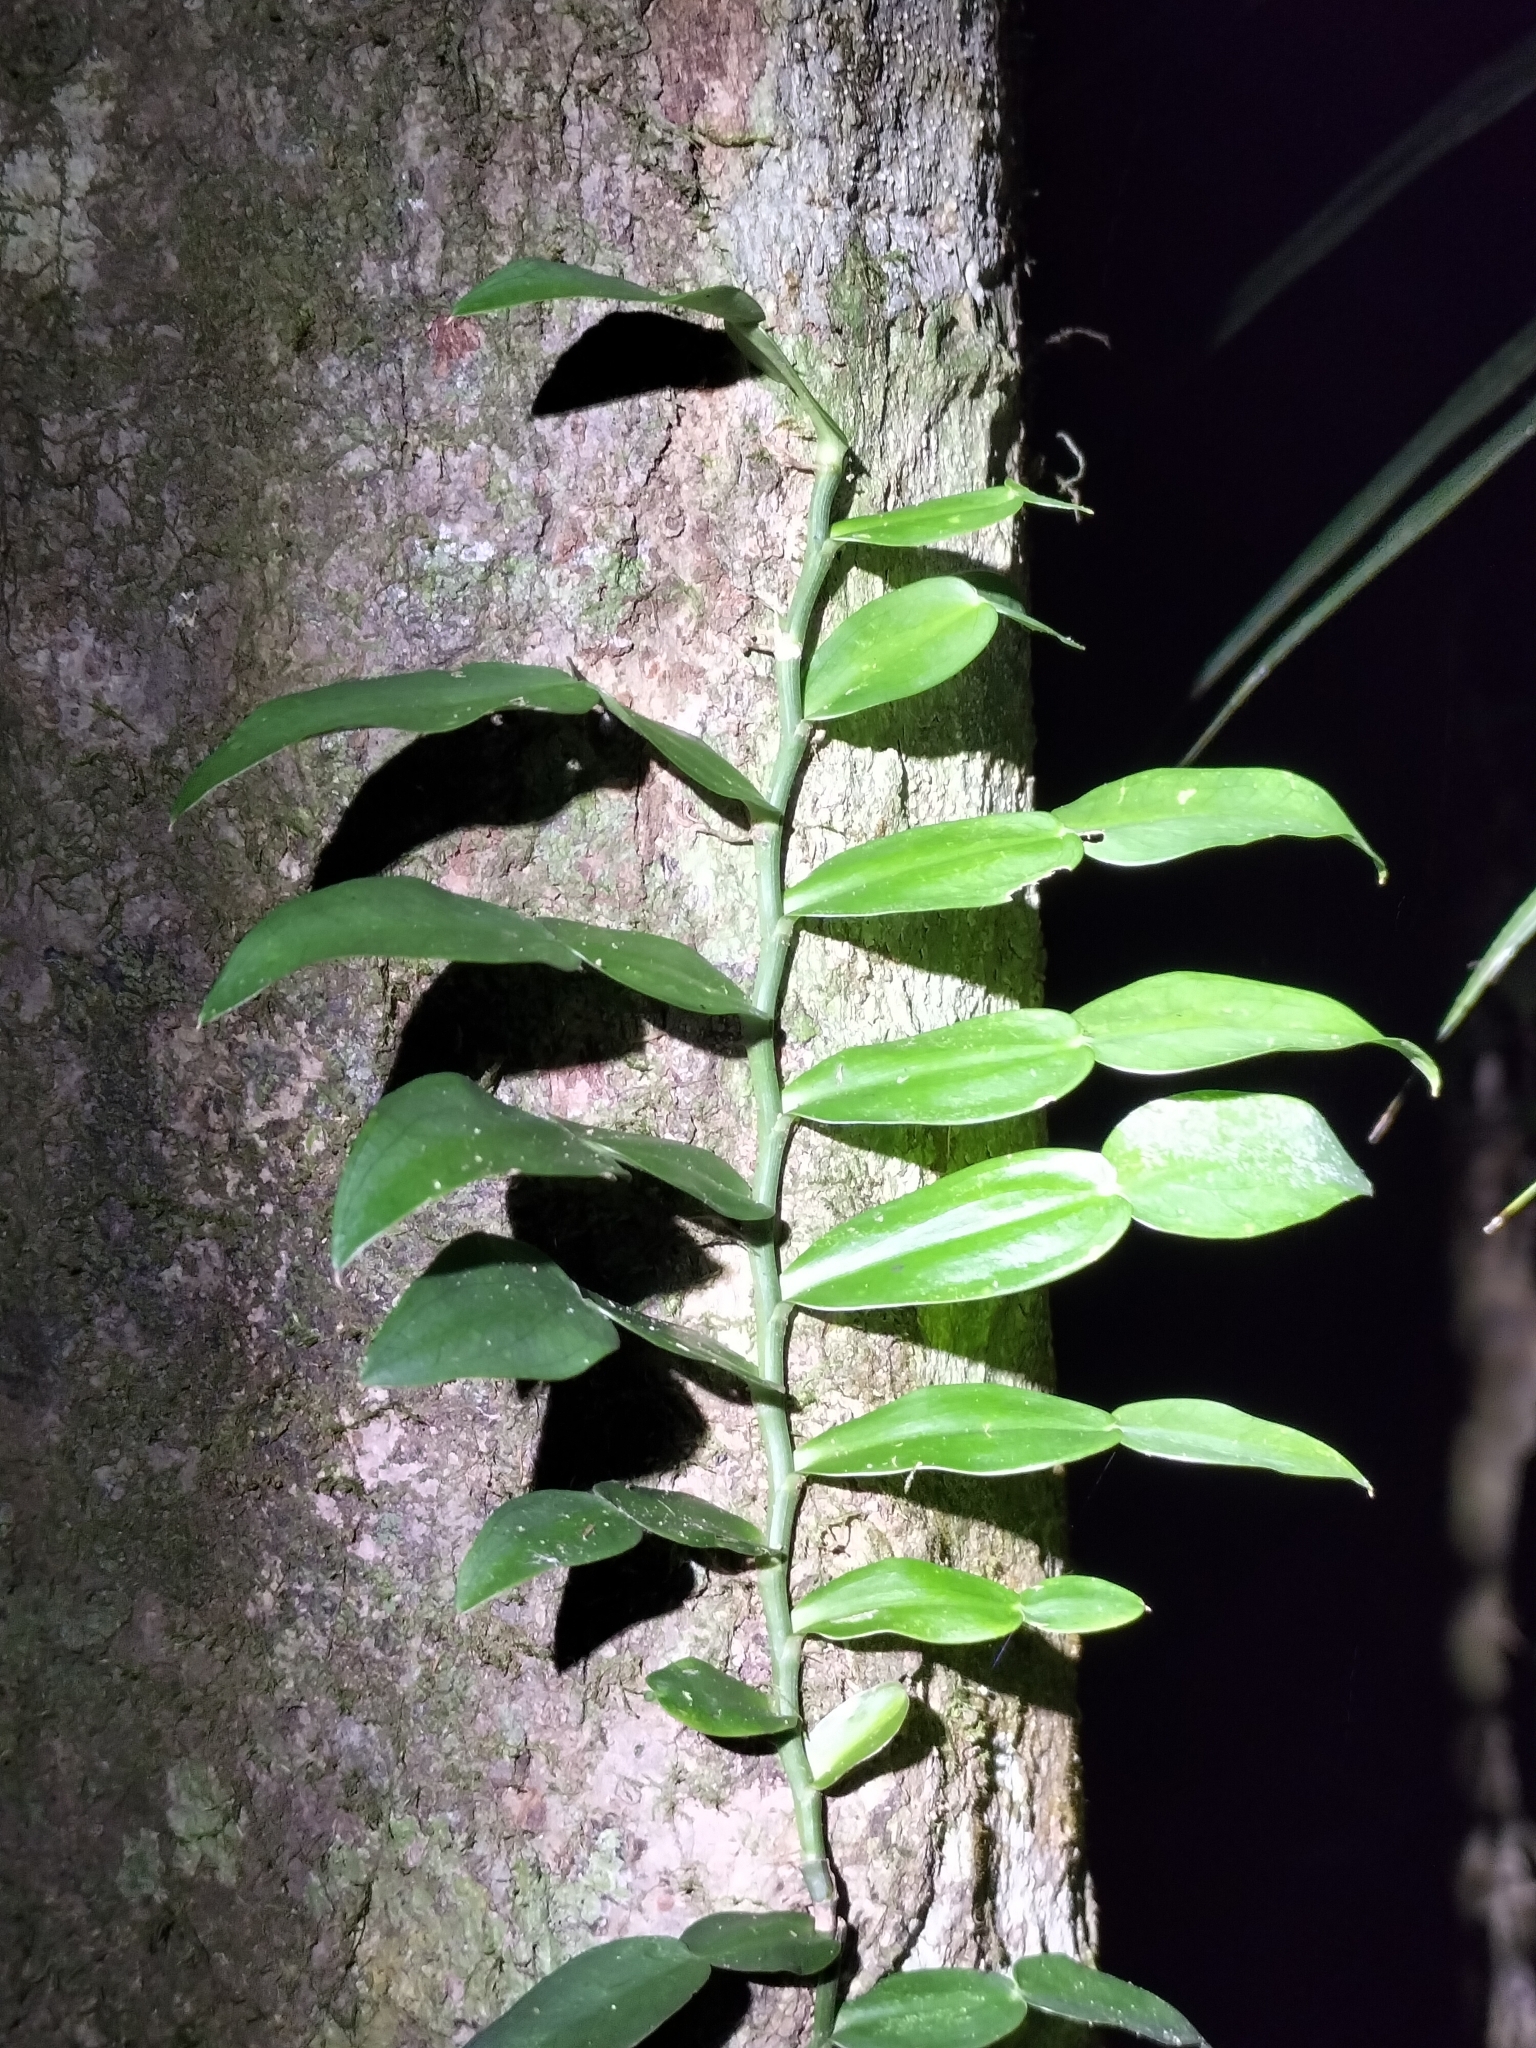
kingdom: Plantae
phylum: Tracheophyta
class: Liliopsida
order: Alismatales
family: Araceae
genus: Pothos
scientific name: Pothos longipes
